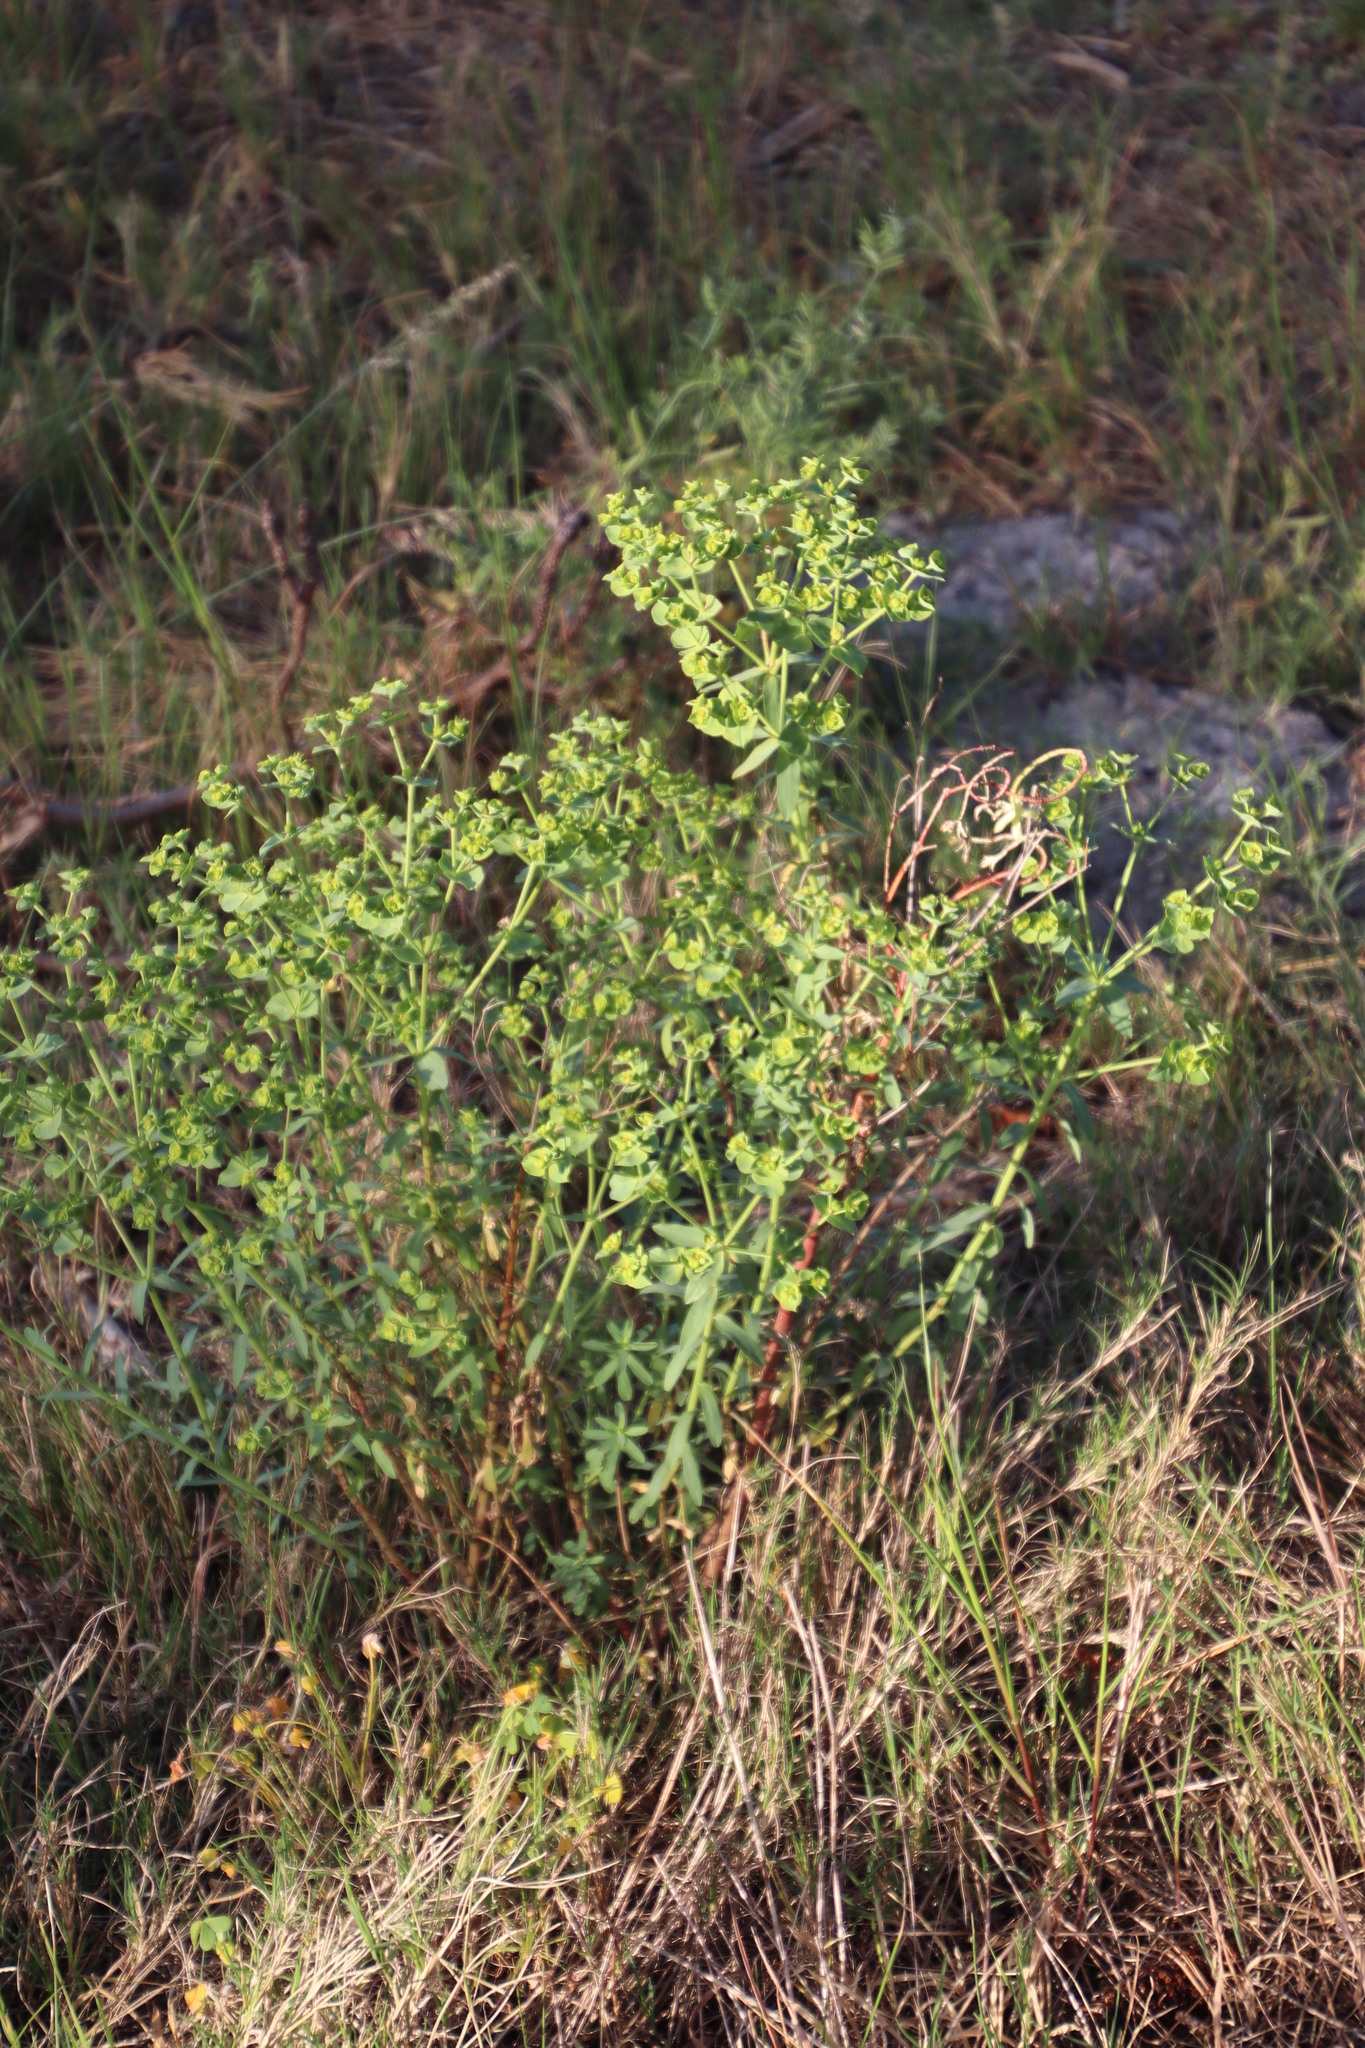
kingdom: Plantae
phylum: Tracheophyta
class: Magnoliopsida
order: Malpighiales
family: Euphorbiaceae
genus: Euphorbia
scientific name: Euphorbia terracina
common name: Geraldton carnation weed
